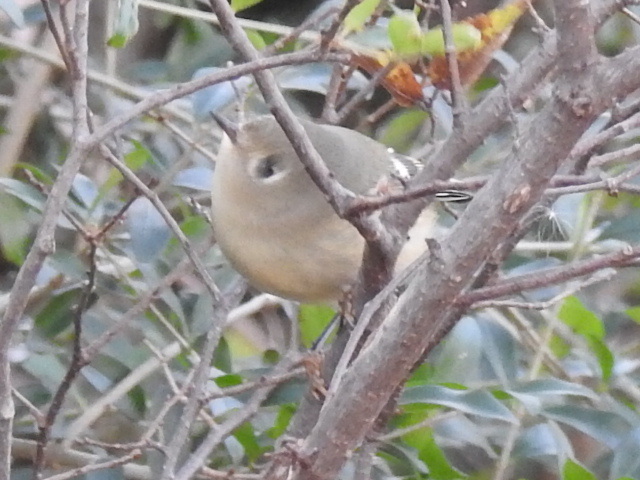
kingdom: Animalia
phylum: Chordata
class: Aves
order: Passeriformes
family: Regulidae
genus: Regulus
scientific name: Regulus calendula
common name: Ruby-crowned kinglet
